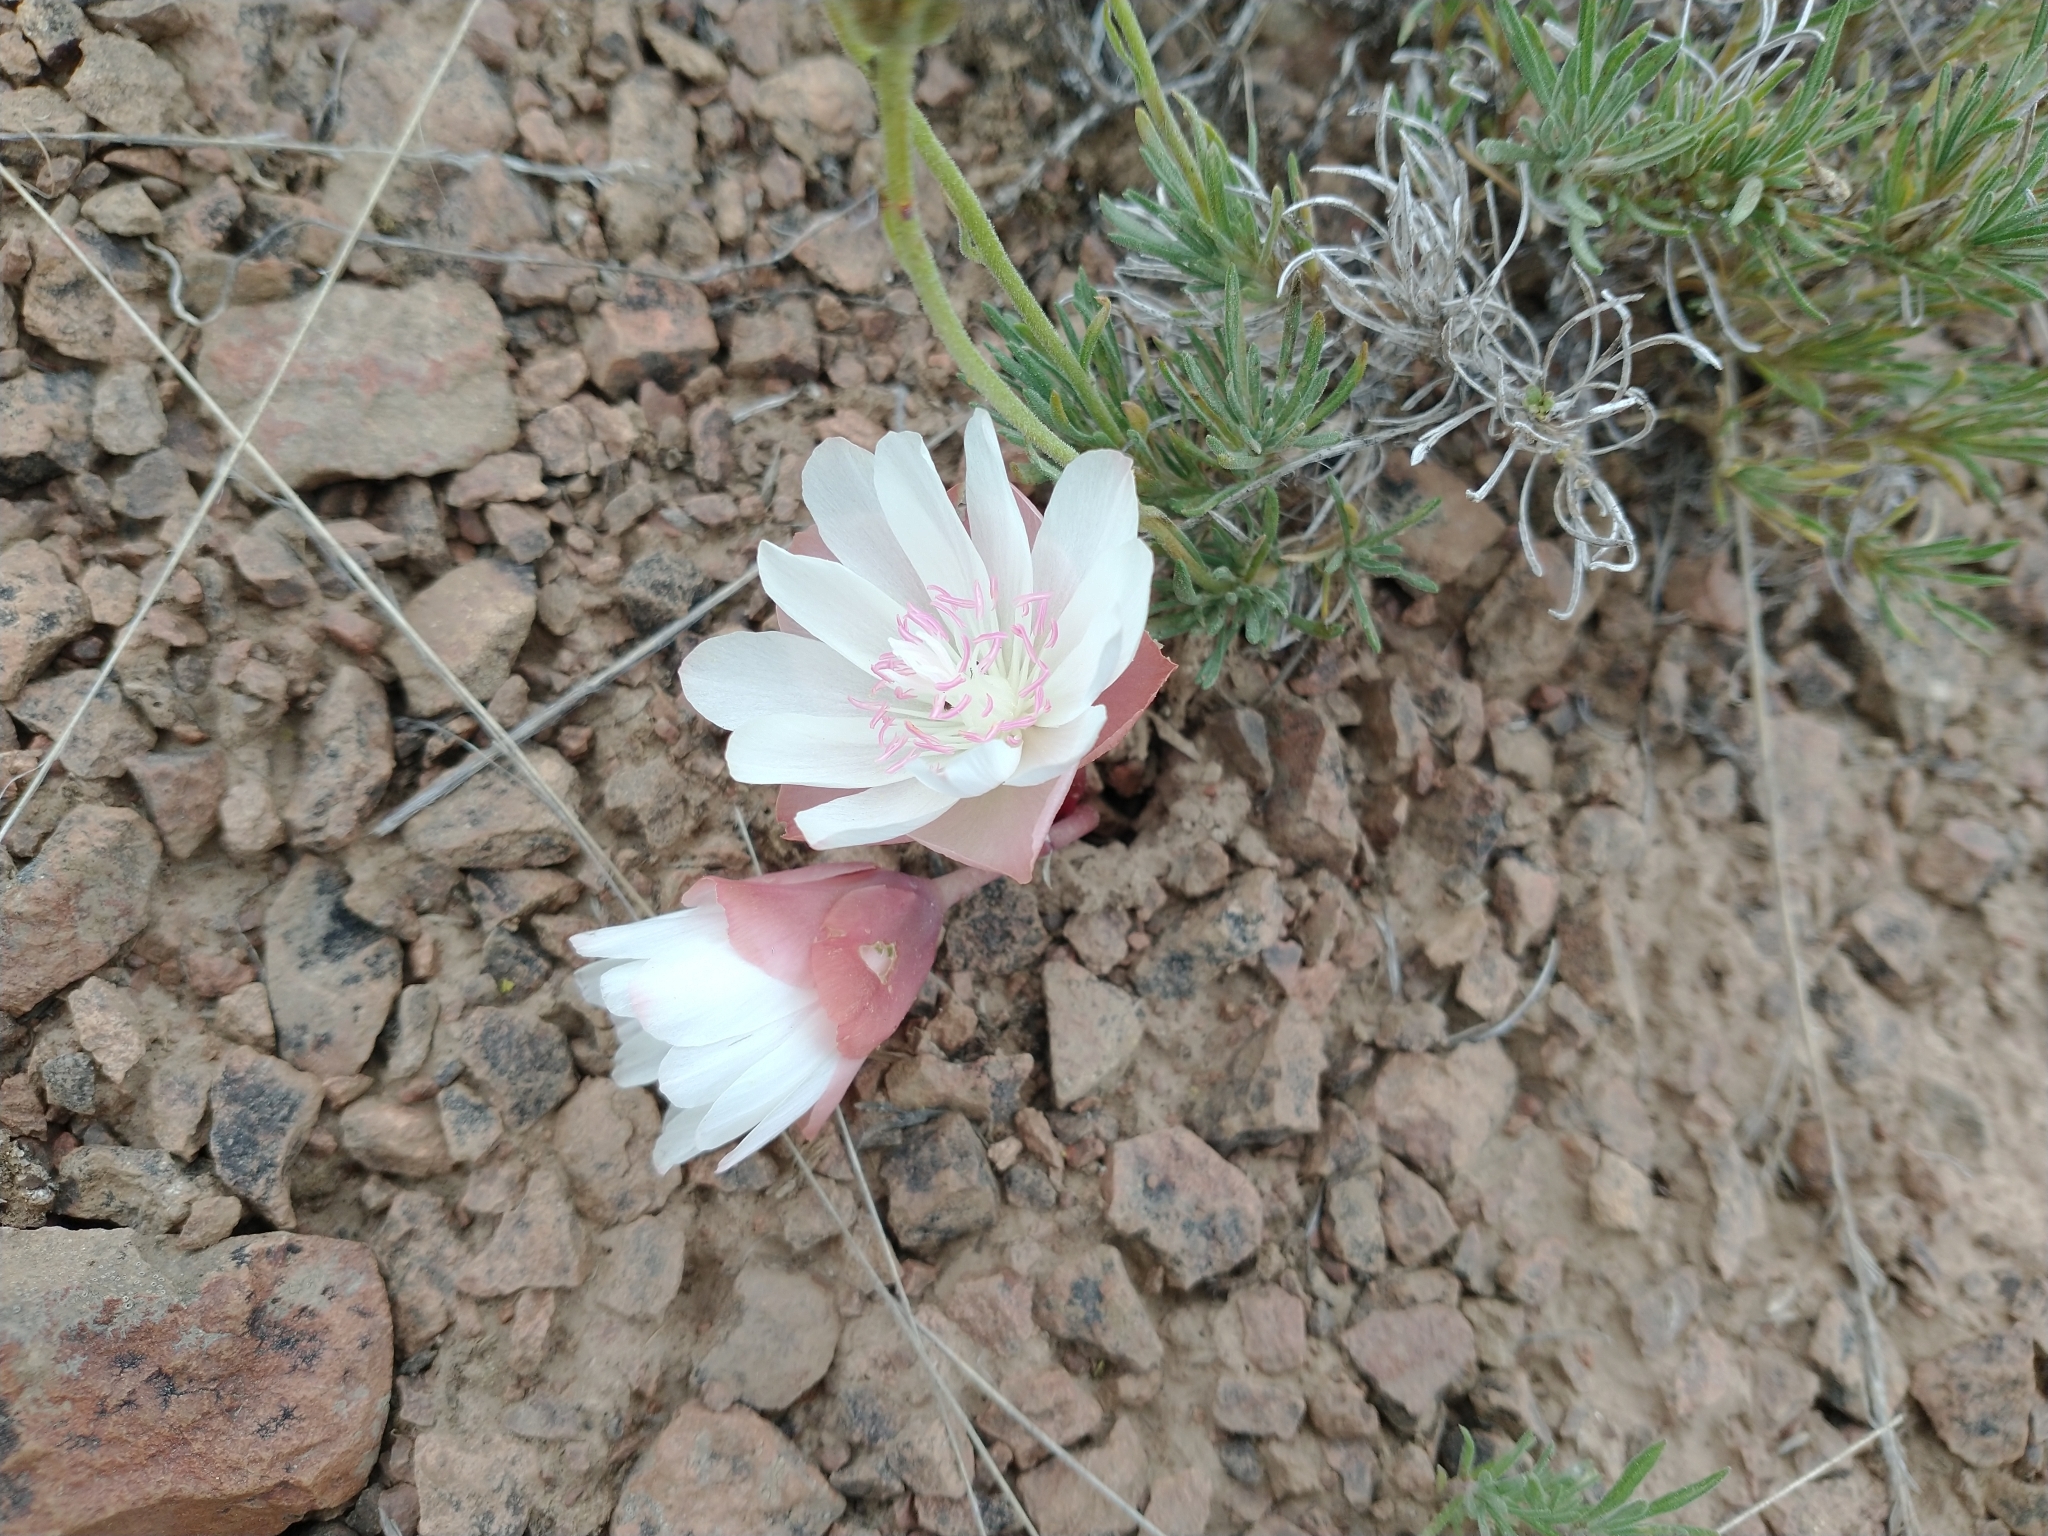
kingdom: Plantae
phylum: Tracheophyta
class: Magnoliopsida
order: Caryophyllales
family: Montiaceae
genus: Lewisia
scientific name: Lewisia rediviva
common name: Bitter-root
